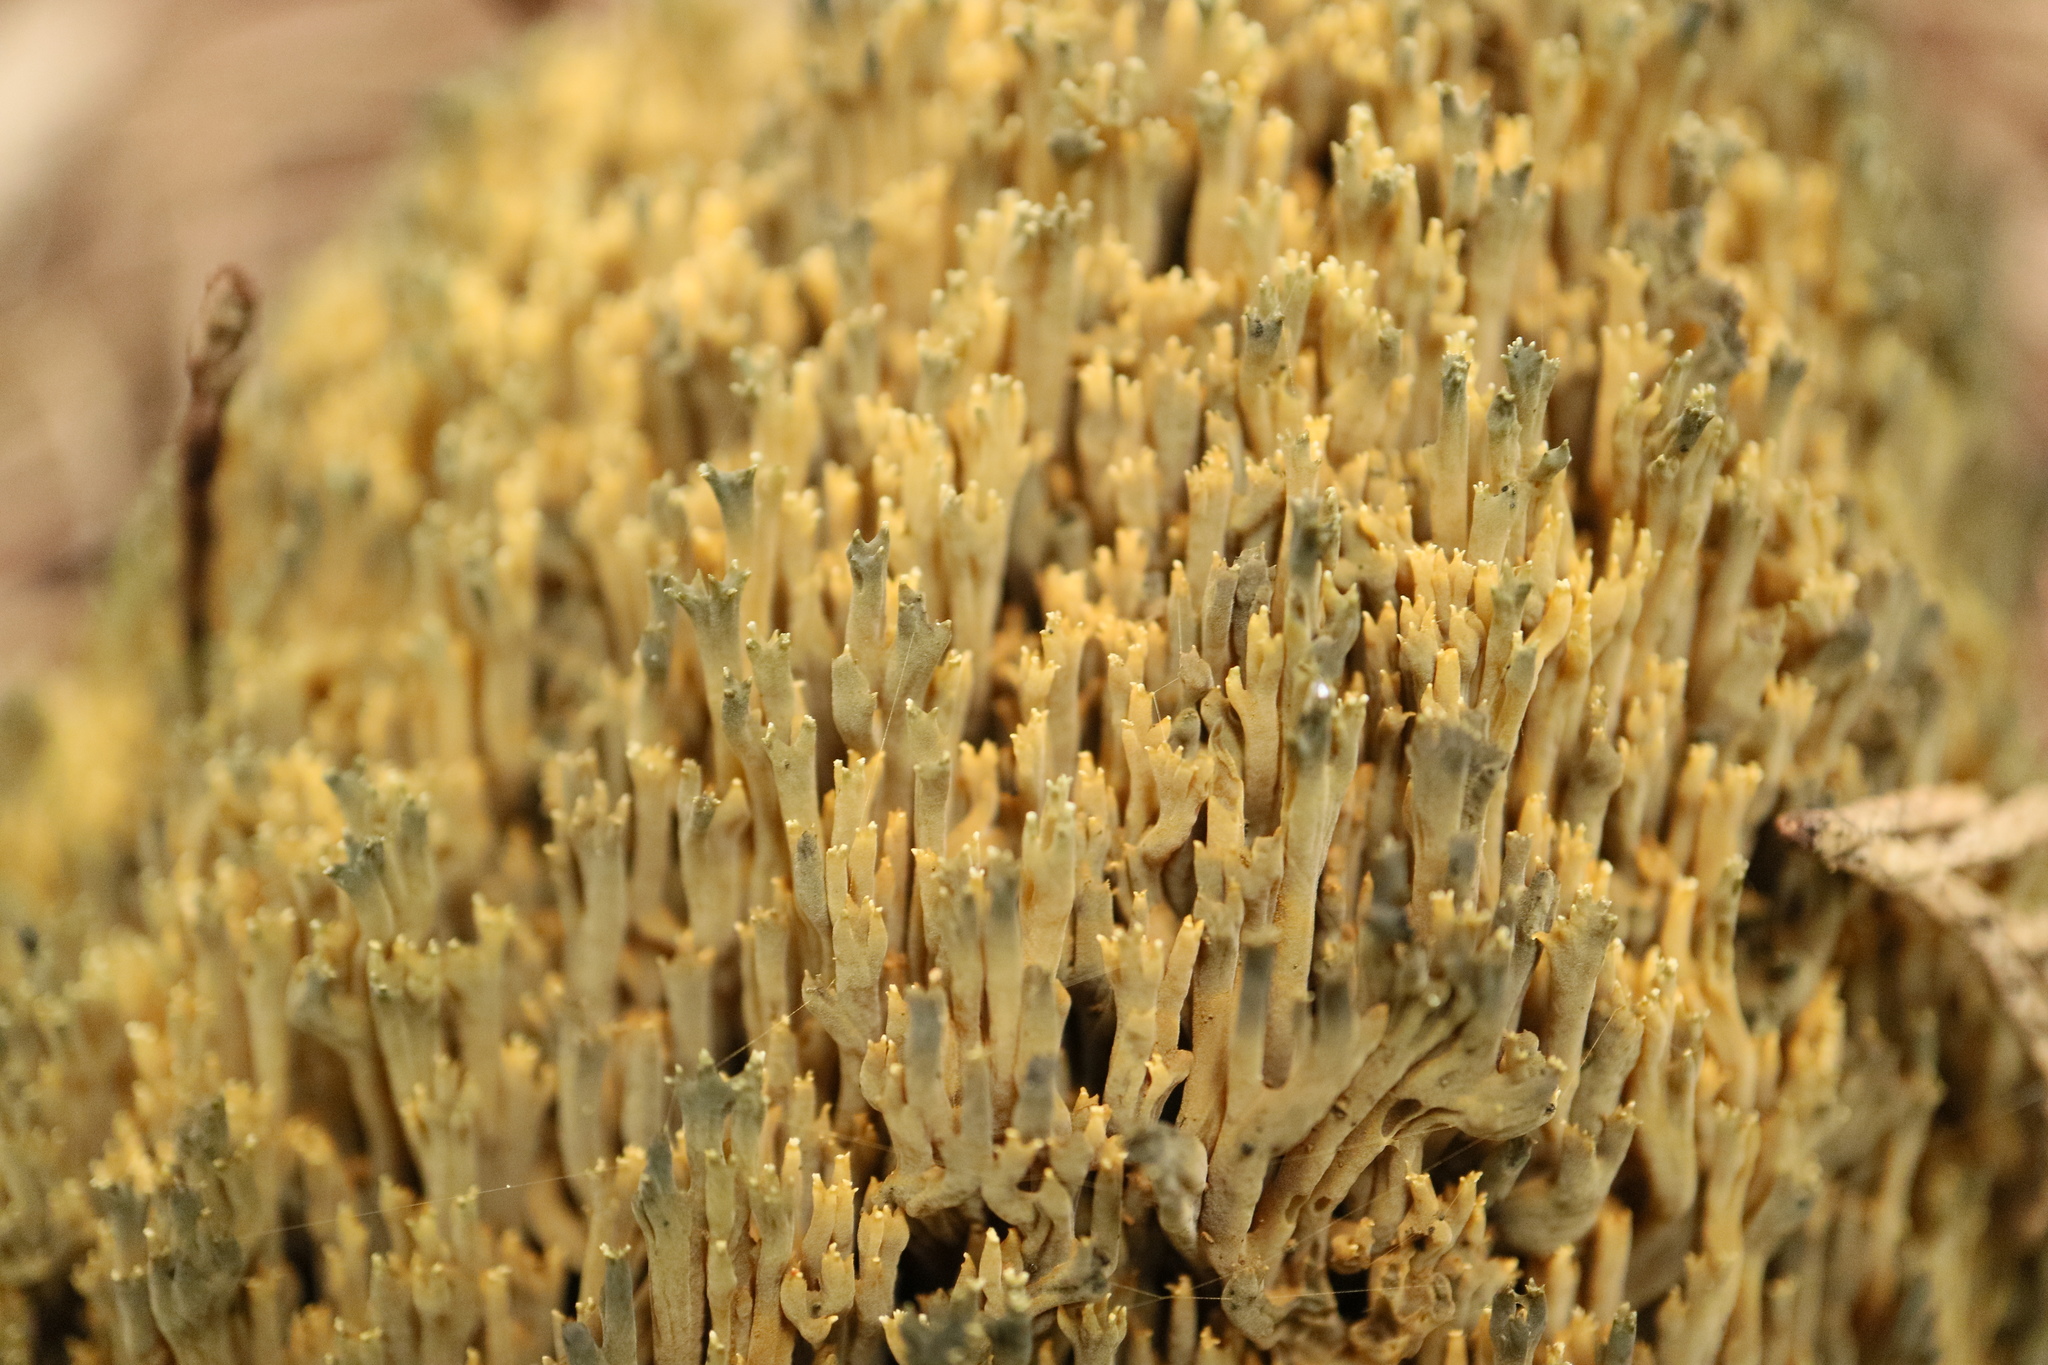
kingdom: Fungi
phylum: Basidiomycota
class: Agaricomycetes
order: Gomphales
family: Gomphaceae
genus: Phaeoclavulina
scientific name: Phaeoclavulina
